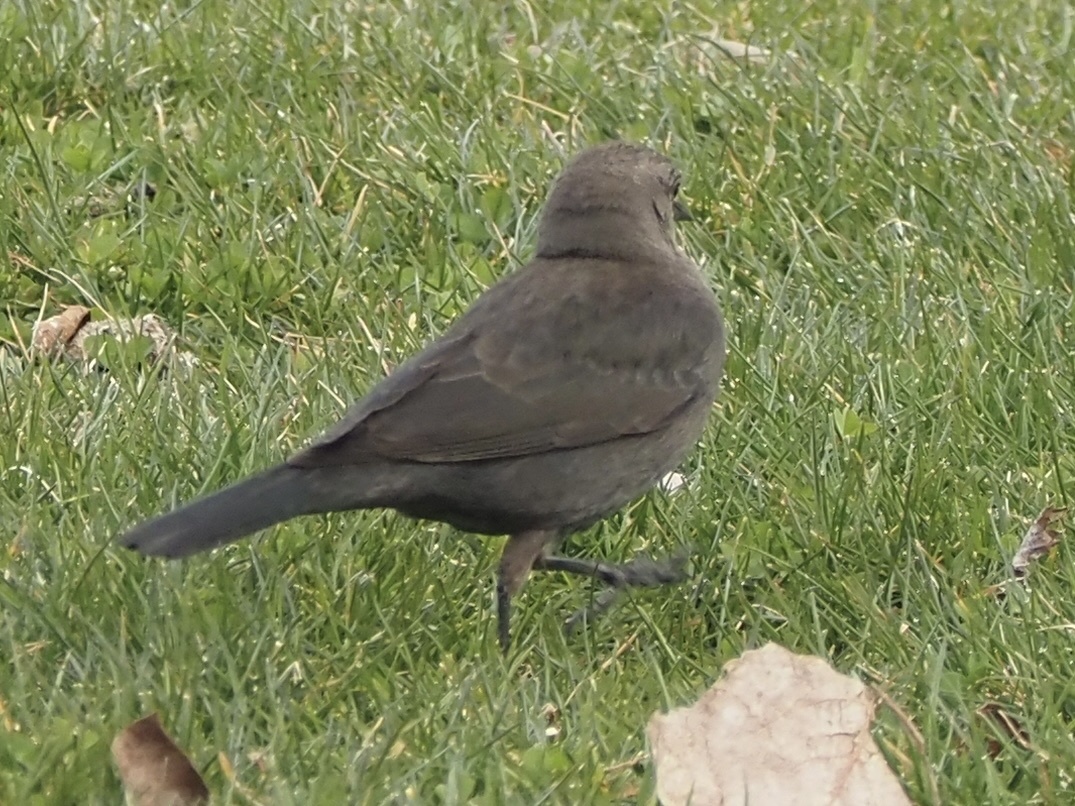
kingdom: Animalia
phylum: Chordata
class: Aves
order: Passeriformes
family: Icteridae
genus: Euphagus
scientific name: Euphagus cyanocephalus
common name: Brewer's blackbird
